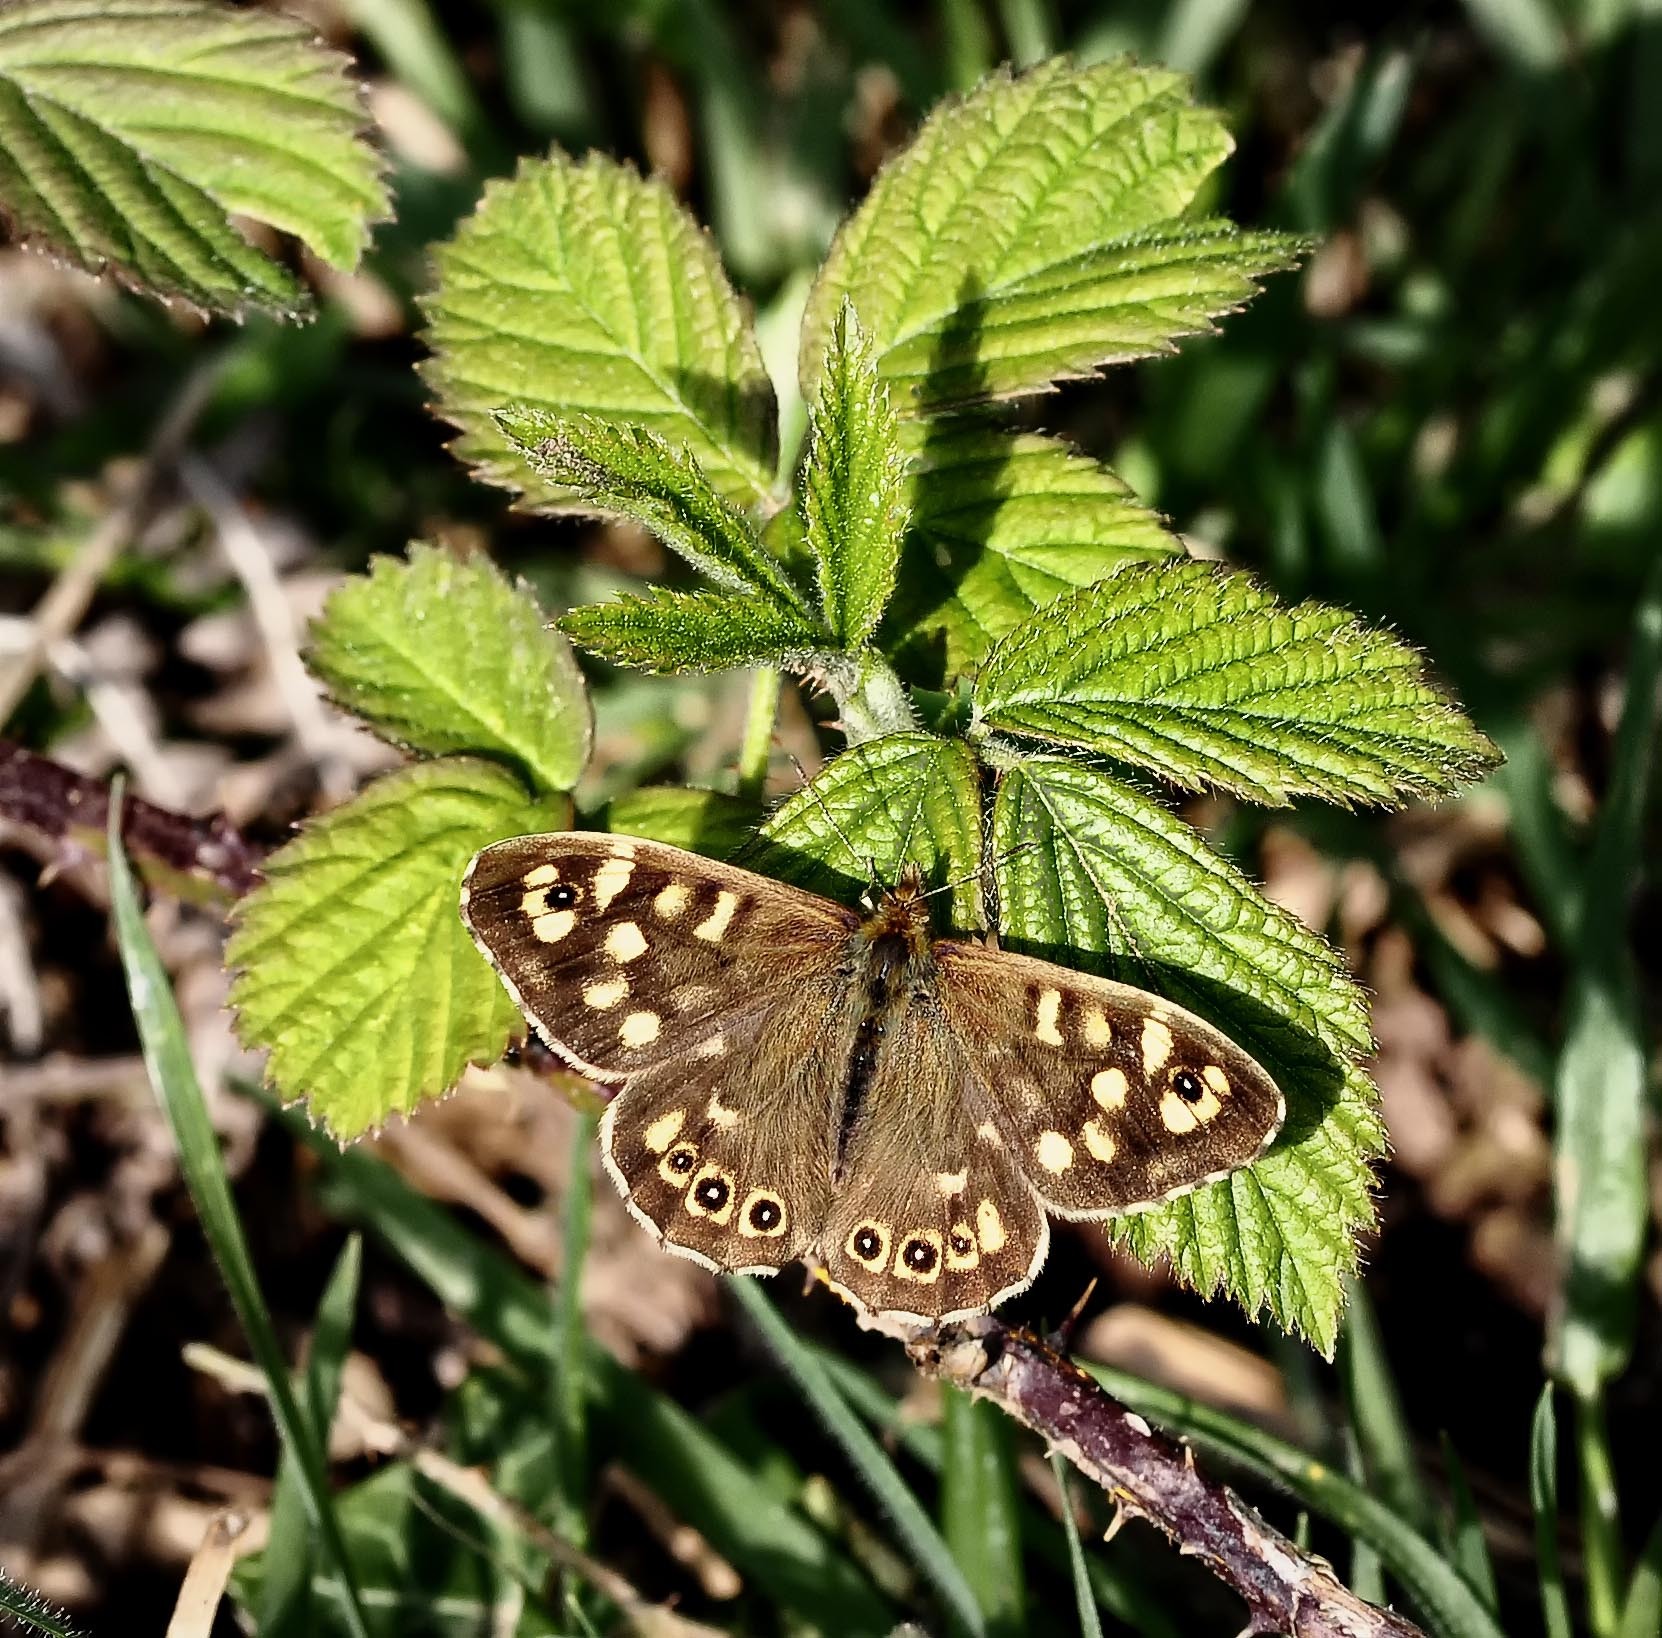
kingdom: Animalia
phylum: Arthropoda
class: Insecta
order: Lepidoptera
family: Nymphalidae
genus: Pararge
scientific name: Pararge aegeria
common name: Speckled wood
